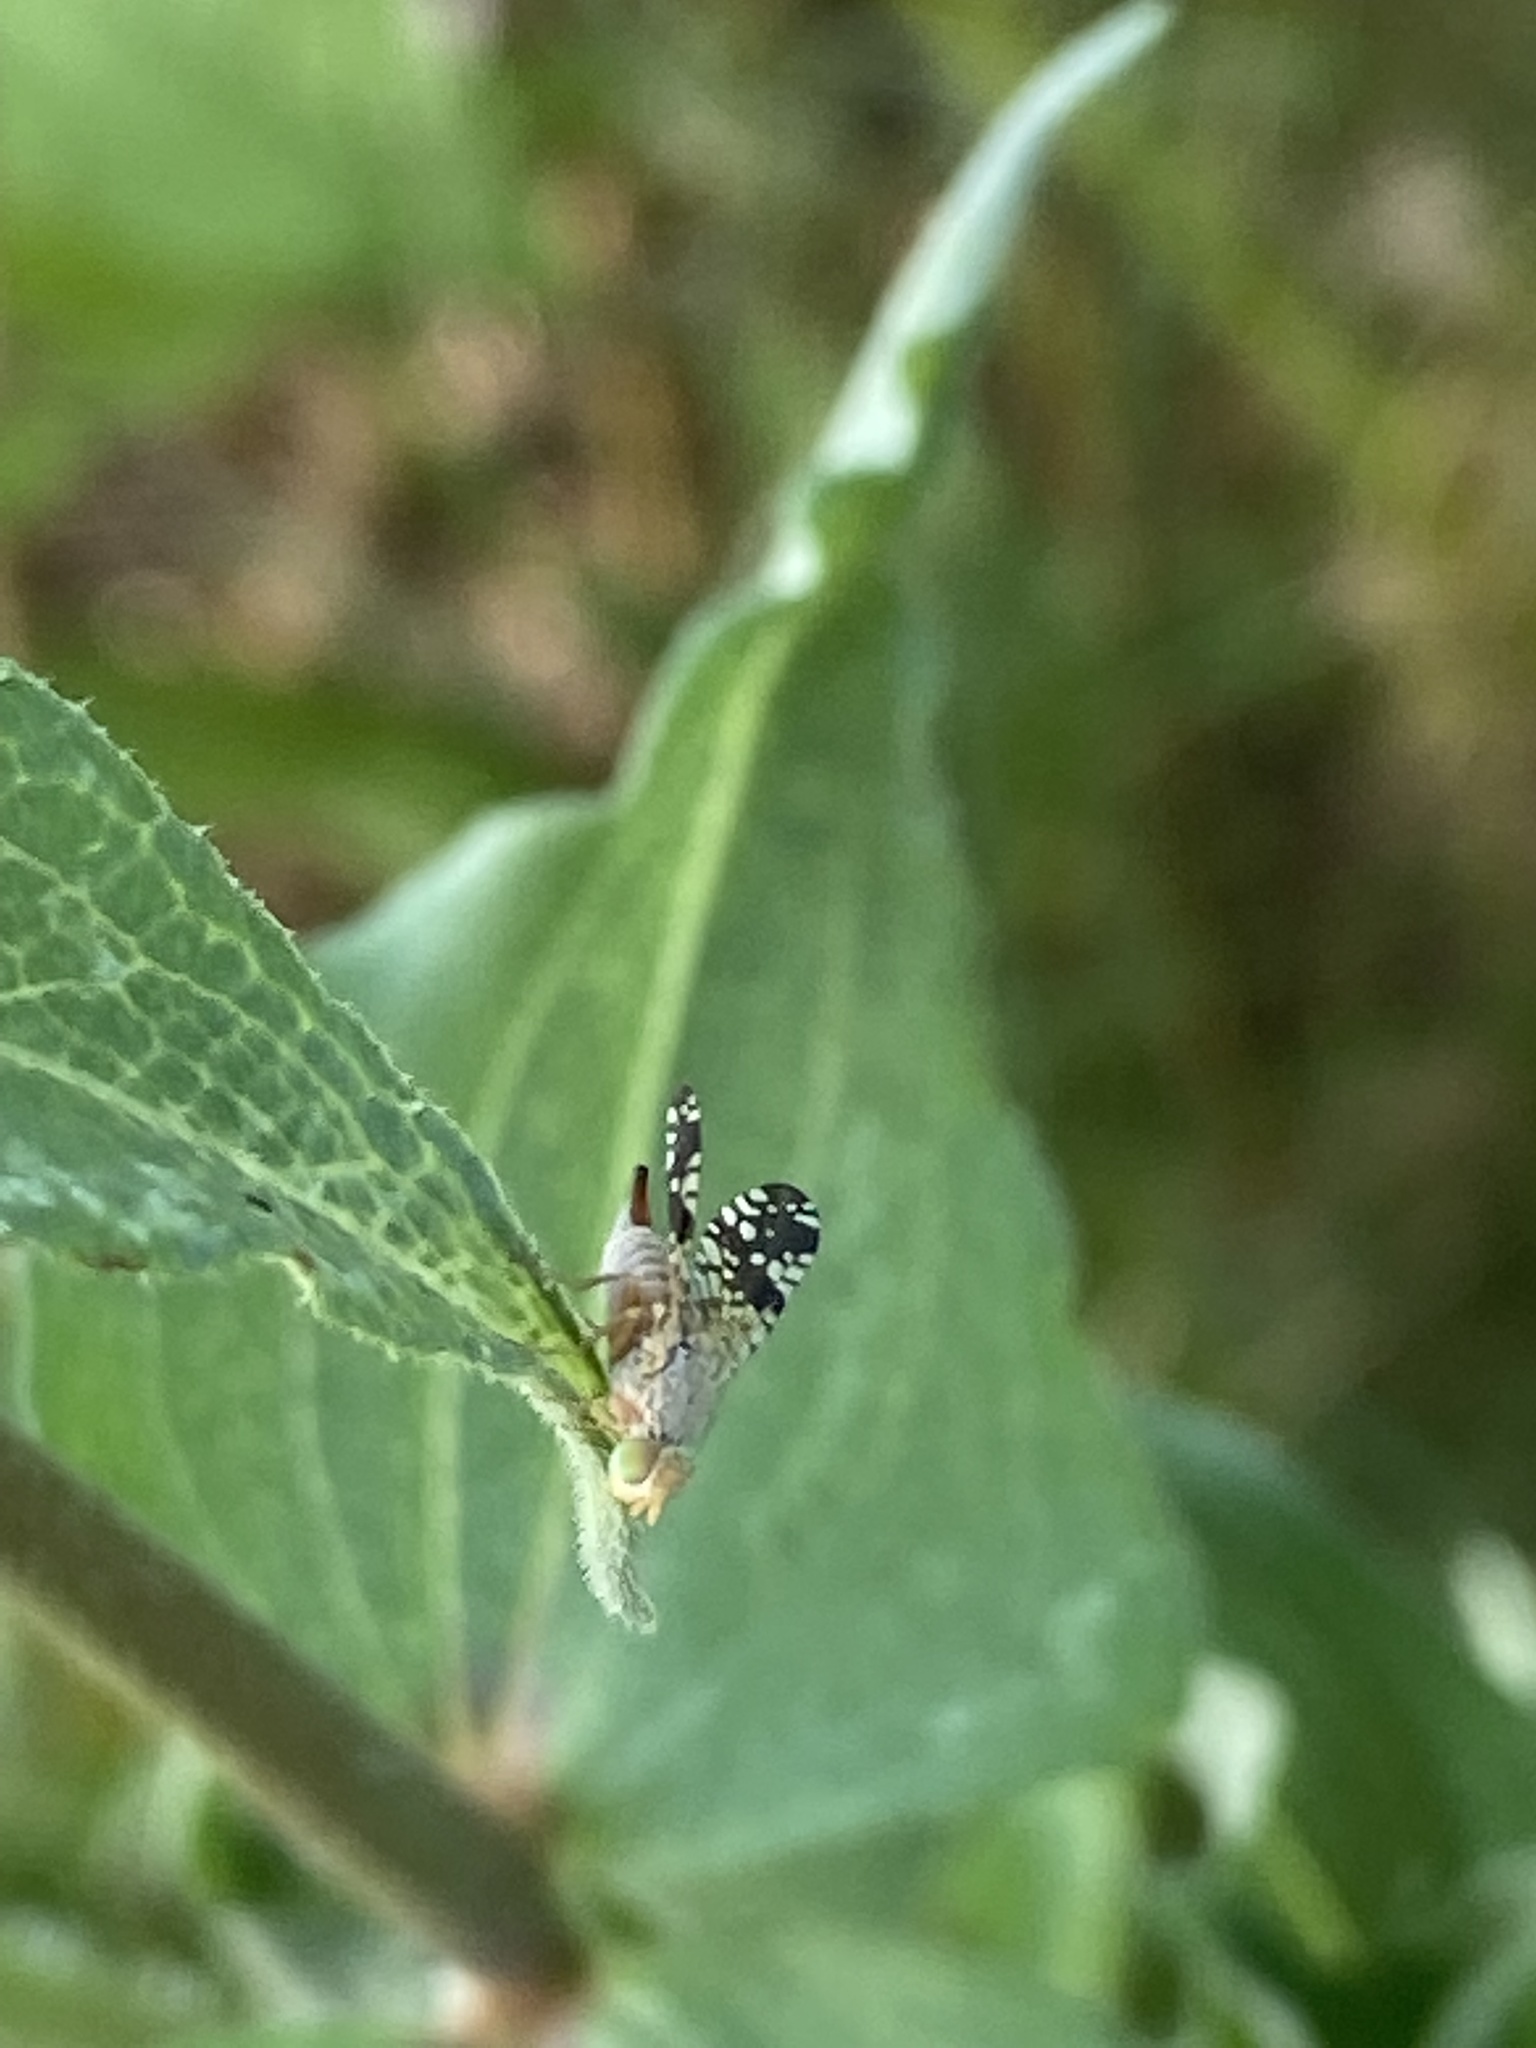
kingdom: Animalia
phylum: Arthropoda
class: Insecta
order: Diptera
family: Tephritidae
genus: Neotephritis
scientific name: Neotephritis finalis
